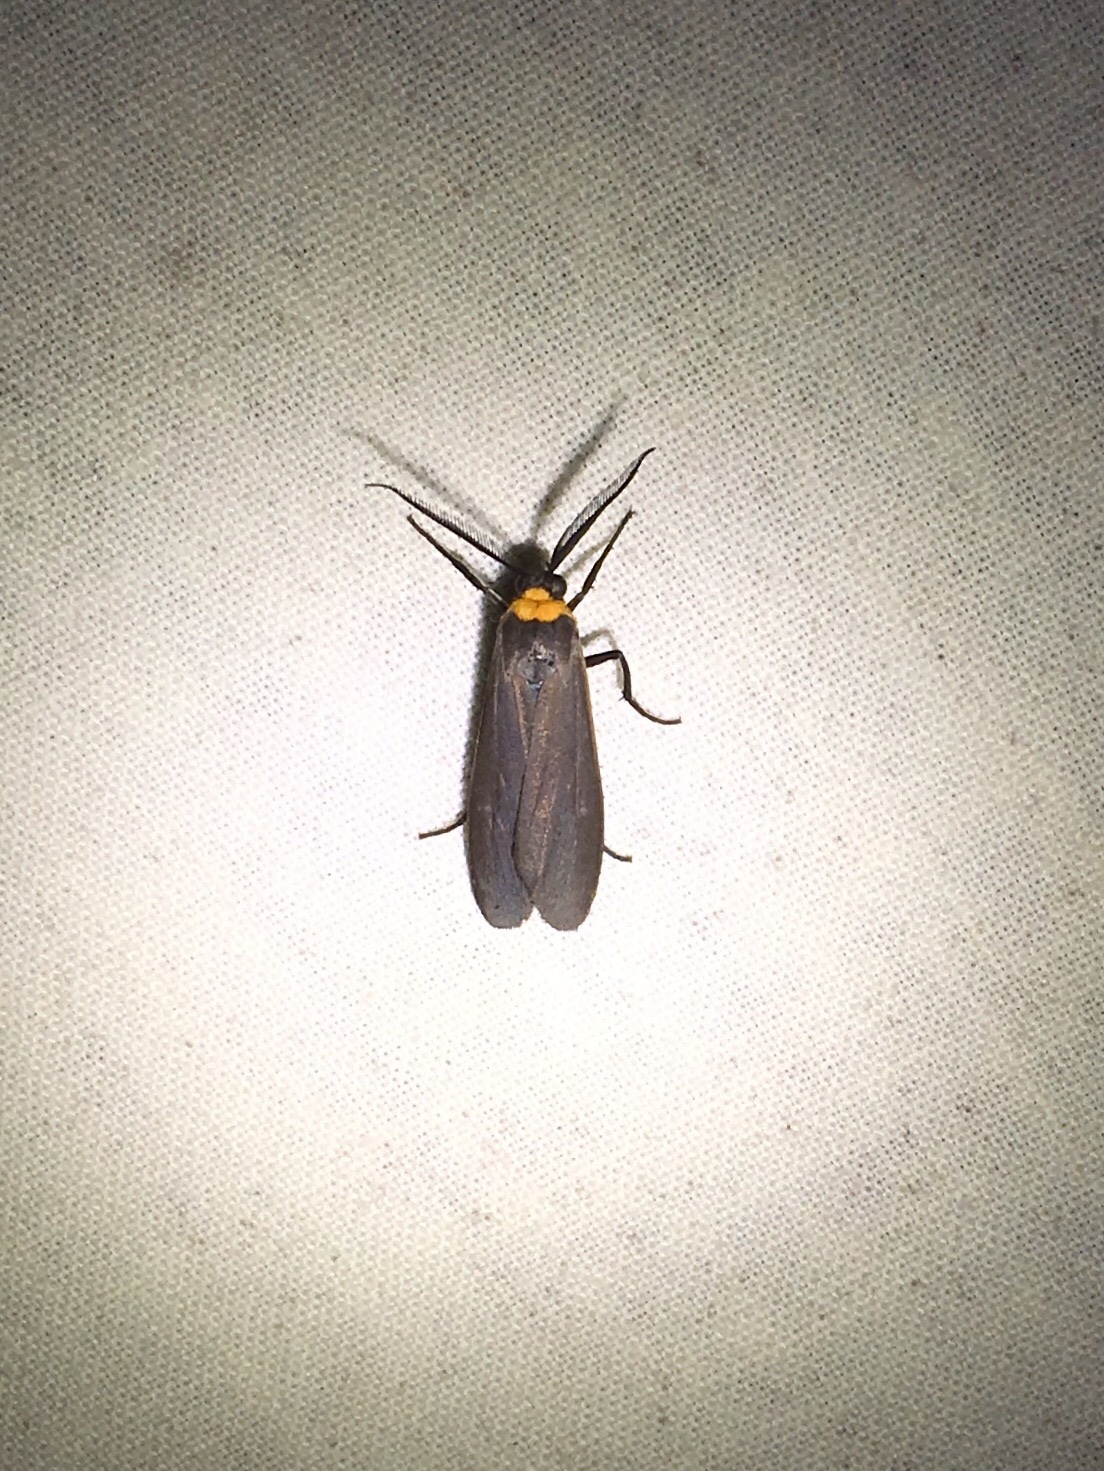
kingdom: Animalia
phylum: Arthropoda
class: Insecta
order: Lepidoptera
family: Erebidae
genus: Cisseps
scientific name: Cisseps fulvicollis
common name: Yellow-collared scape moth
